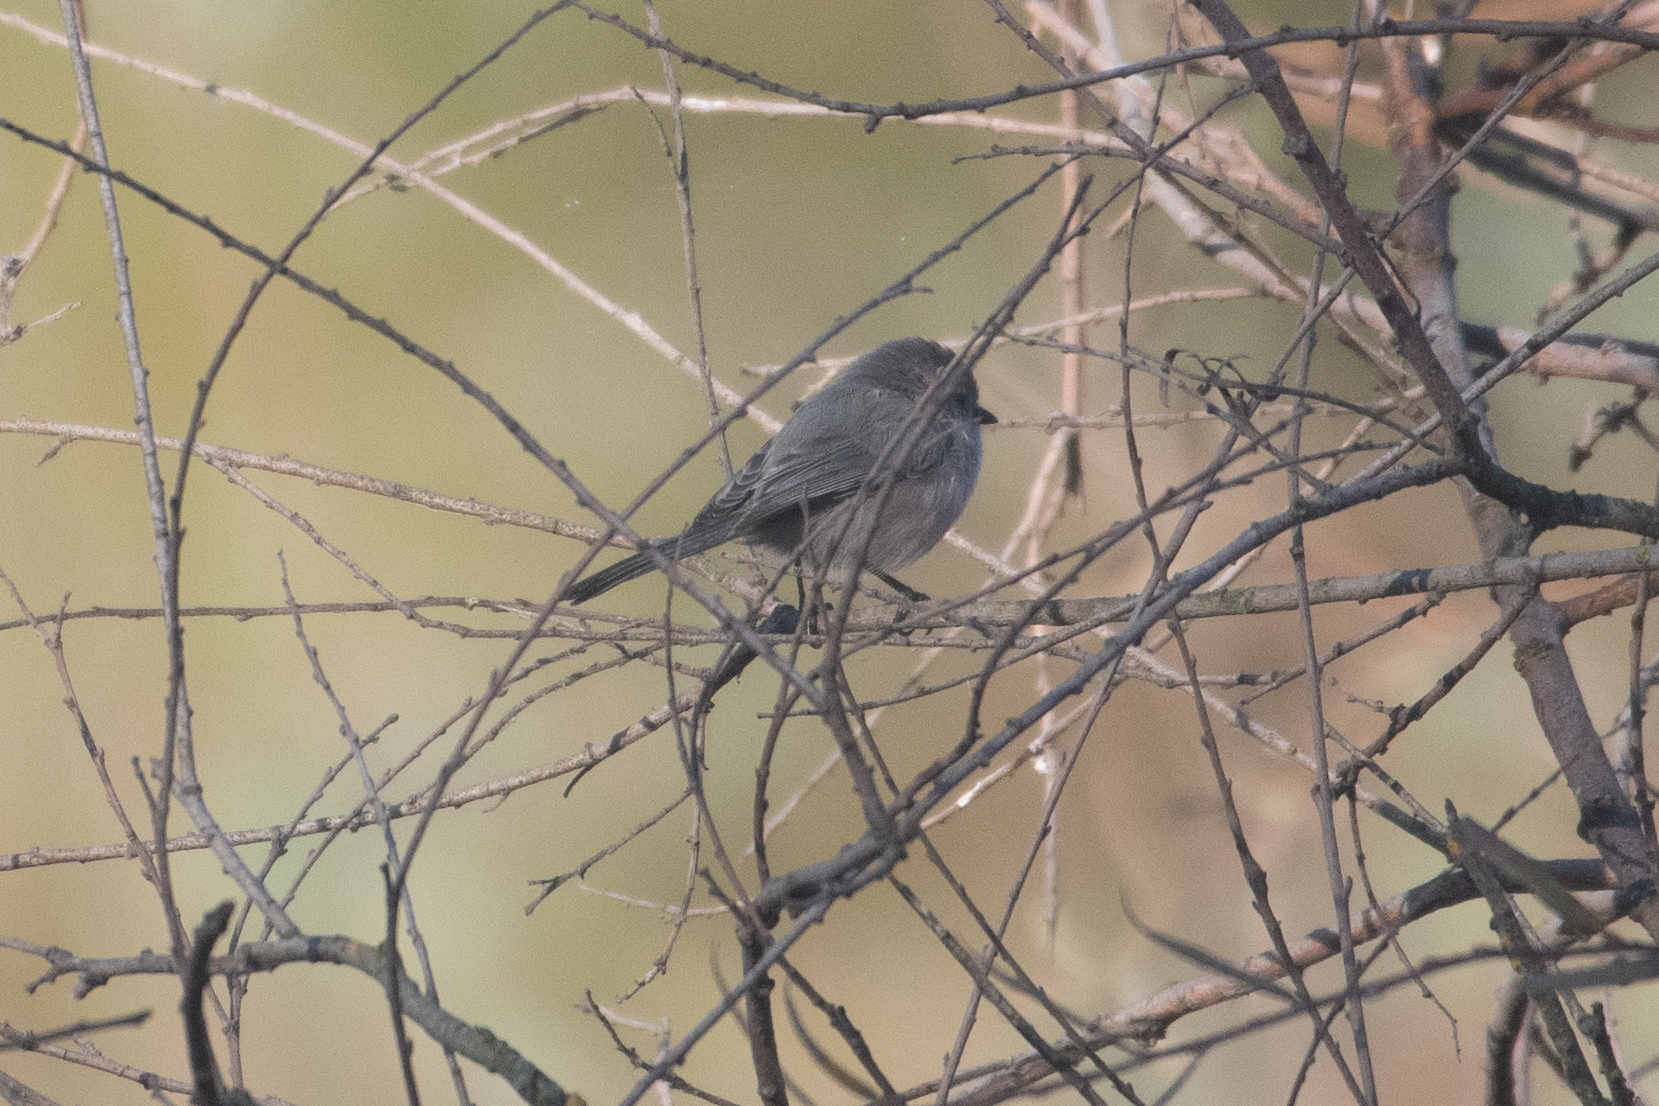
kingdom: Animalia
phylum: Chordata
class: Aves
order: Passeriformes
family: Aegithalidae
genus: Psaltriparus
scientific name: Psaltriparus minimus
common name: American bushtit
